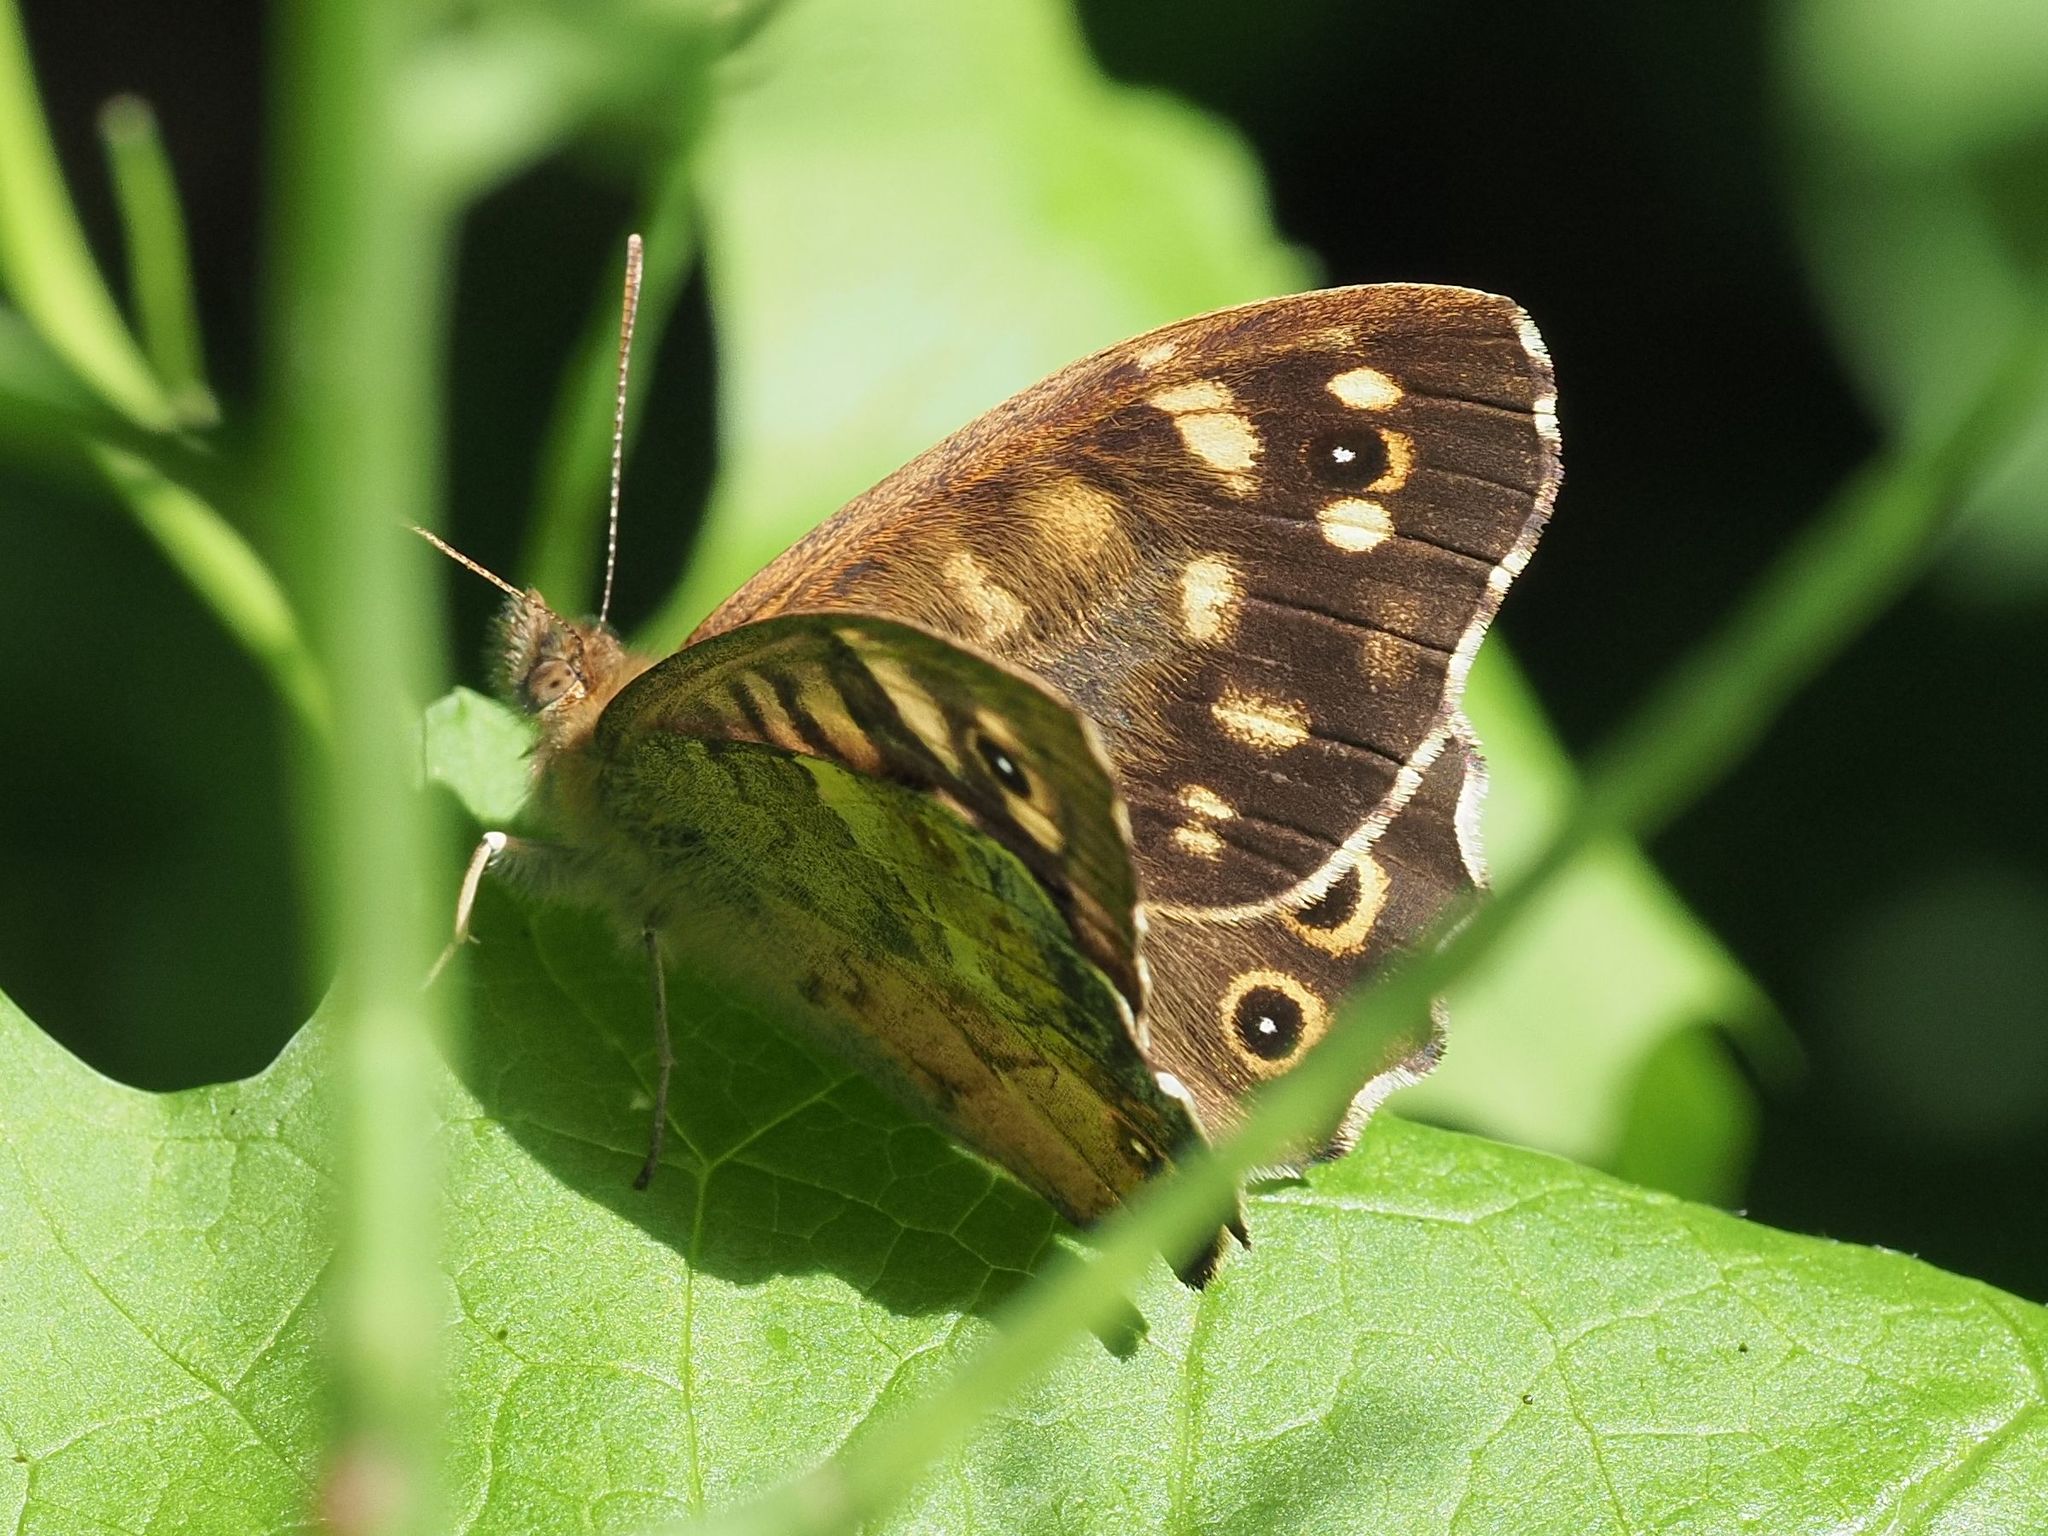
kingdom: Animalia
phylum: Arthropoda
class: Insecta
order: Lepidoptera
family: Nymphalidae
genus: Pararge
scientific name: Pararge aegeria
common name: Speckled wood
